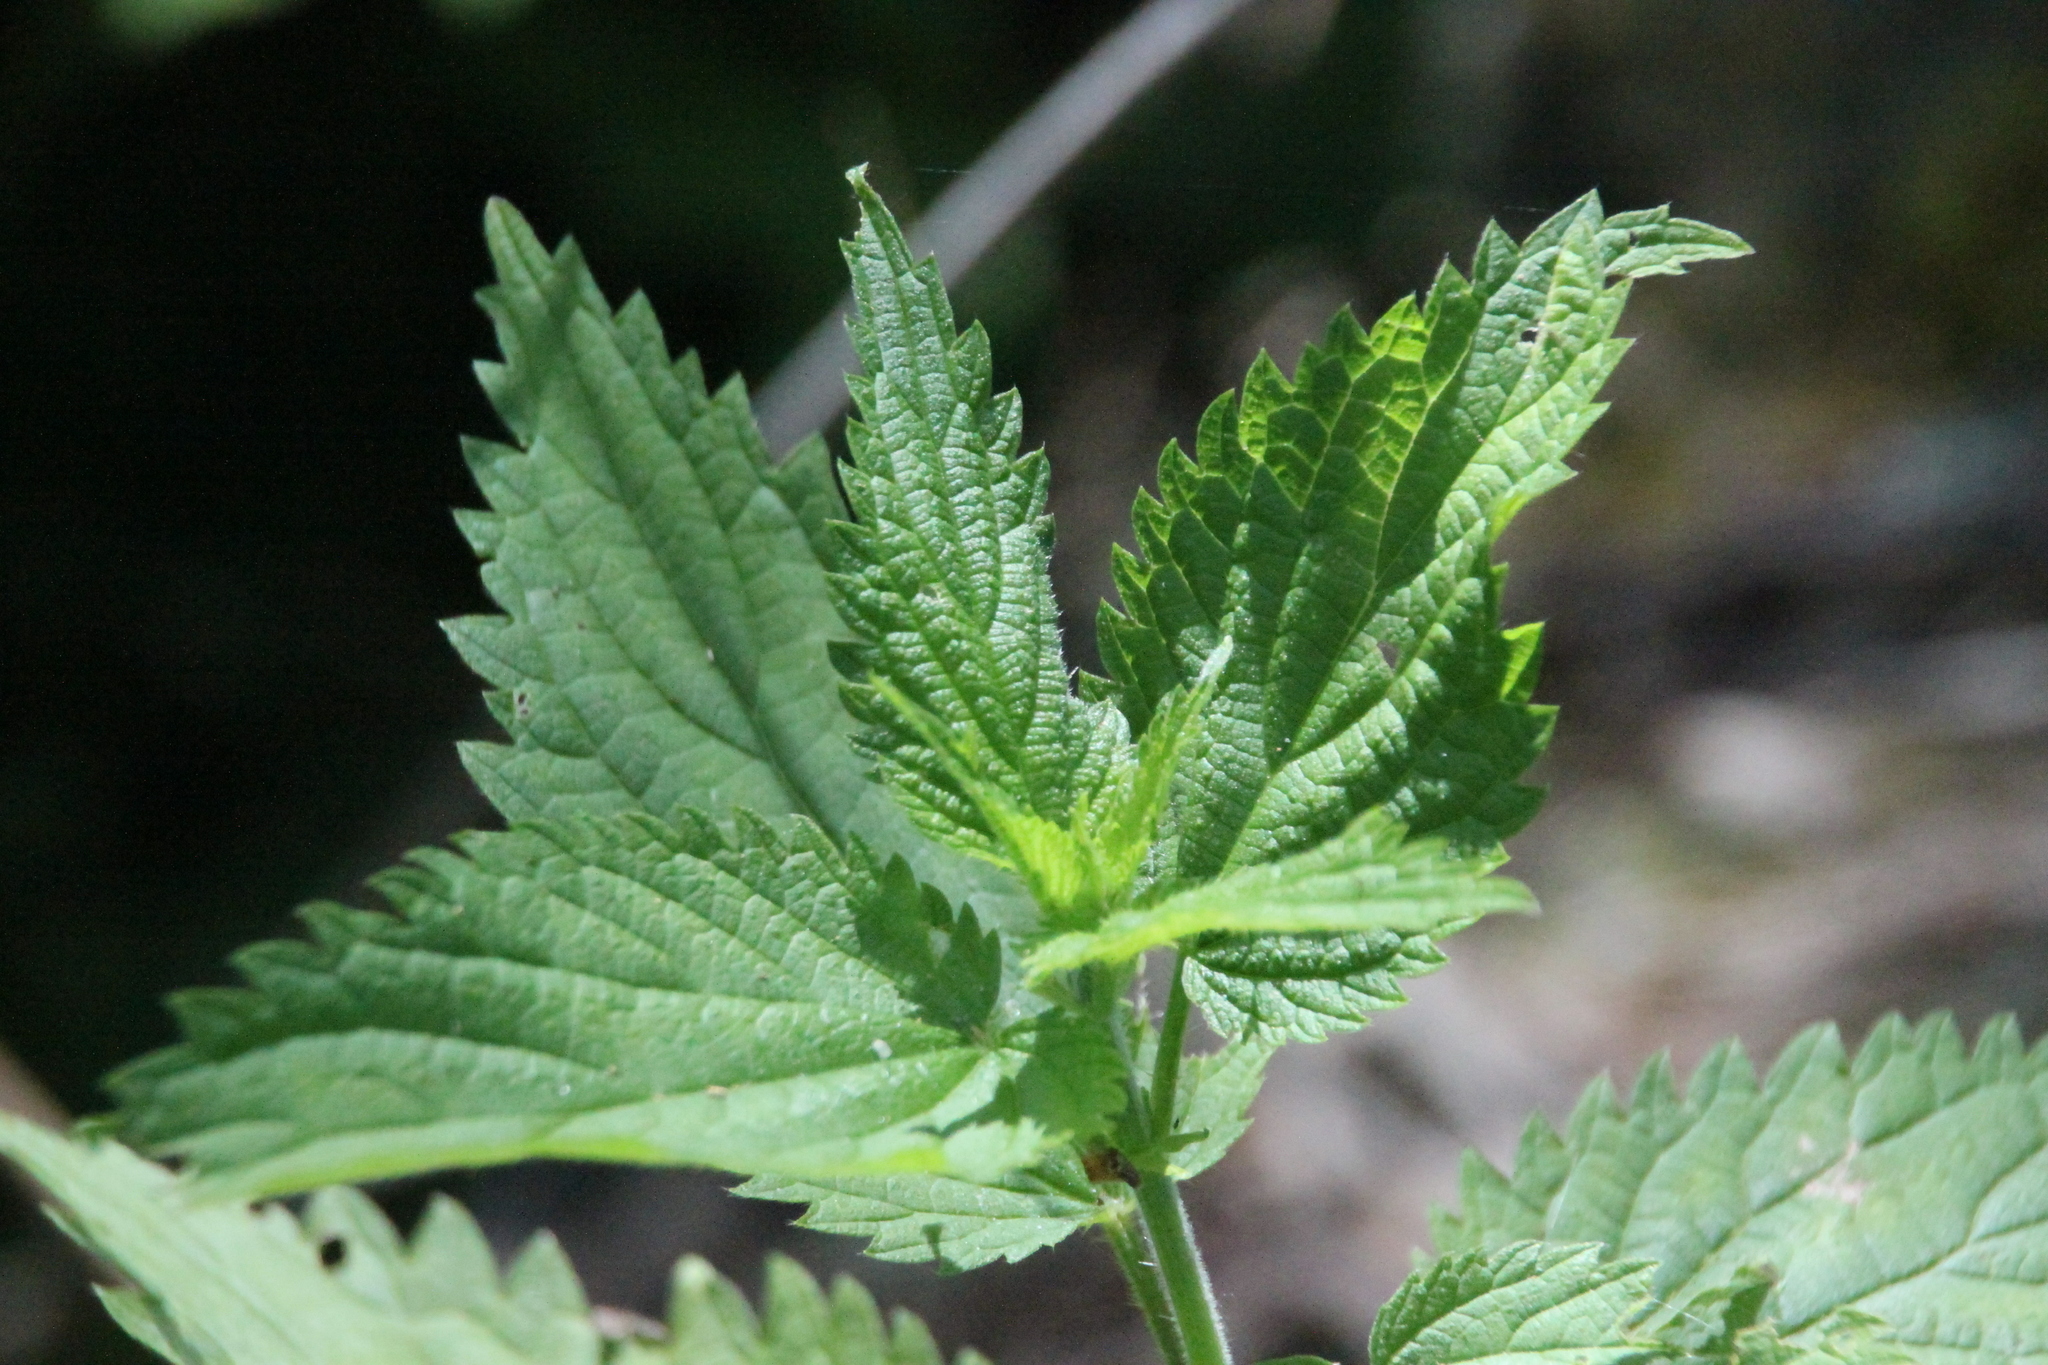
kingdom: Plantae
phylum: Tracheophyta
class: Magnoliopsida
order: Rosales
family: Urticaceae
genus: Urtica
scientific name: Urtica dioica
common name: Common nettle
